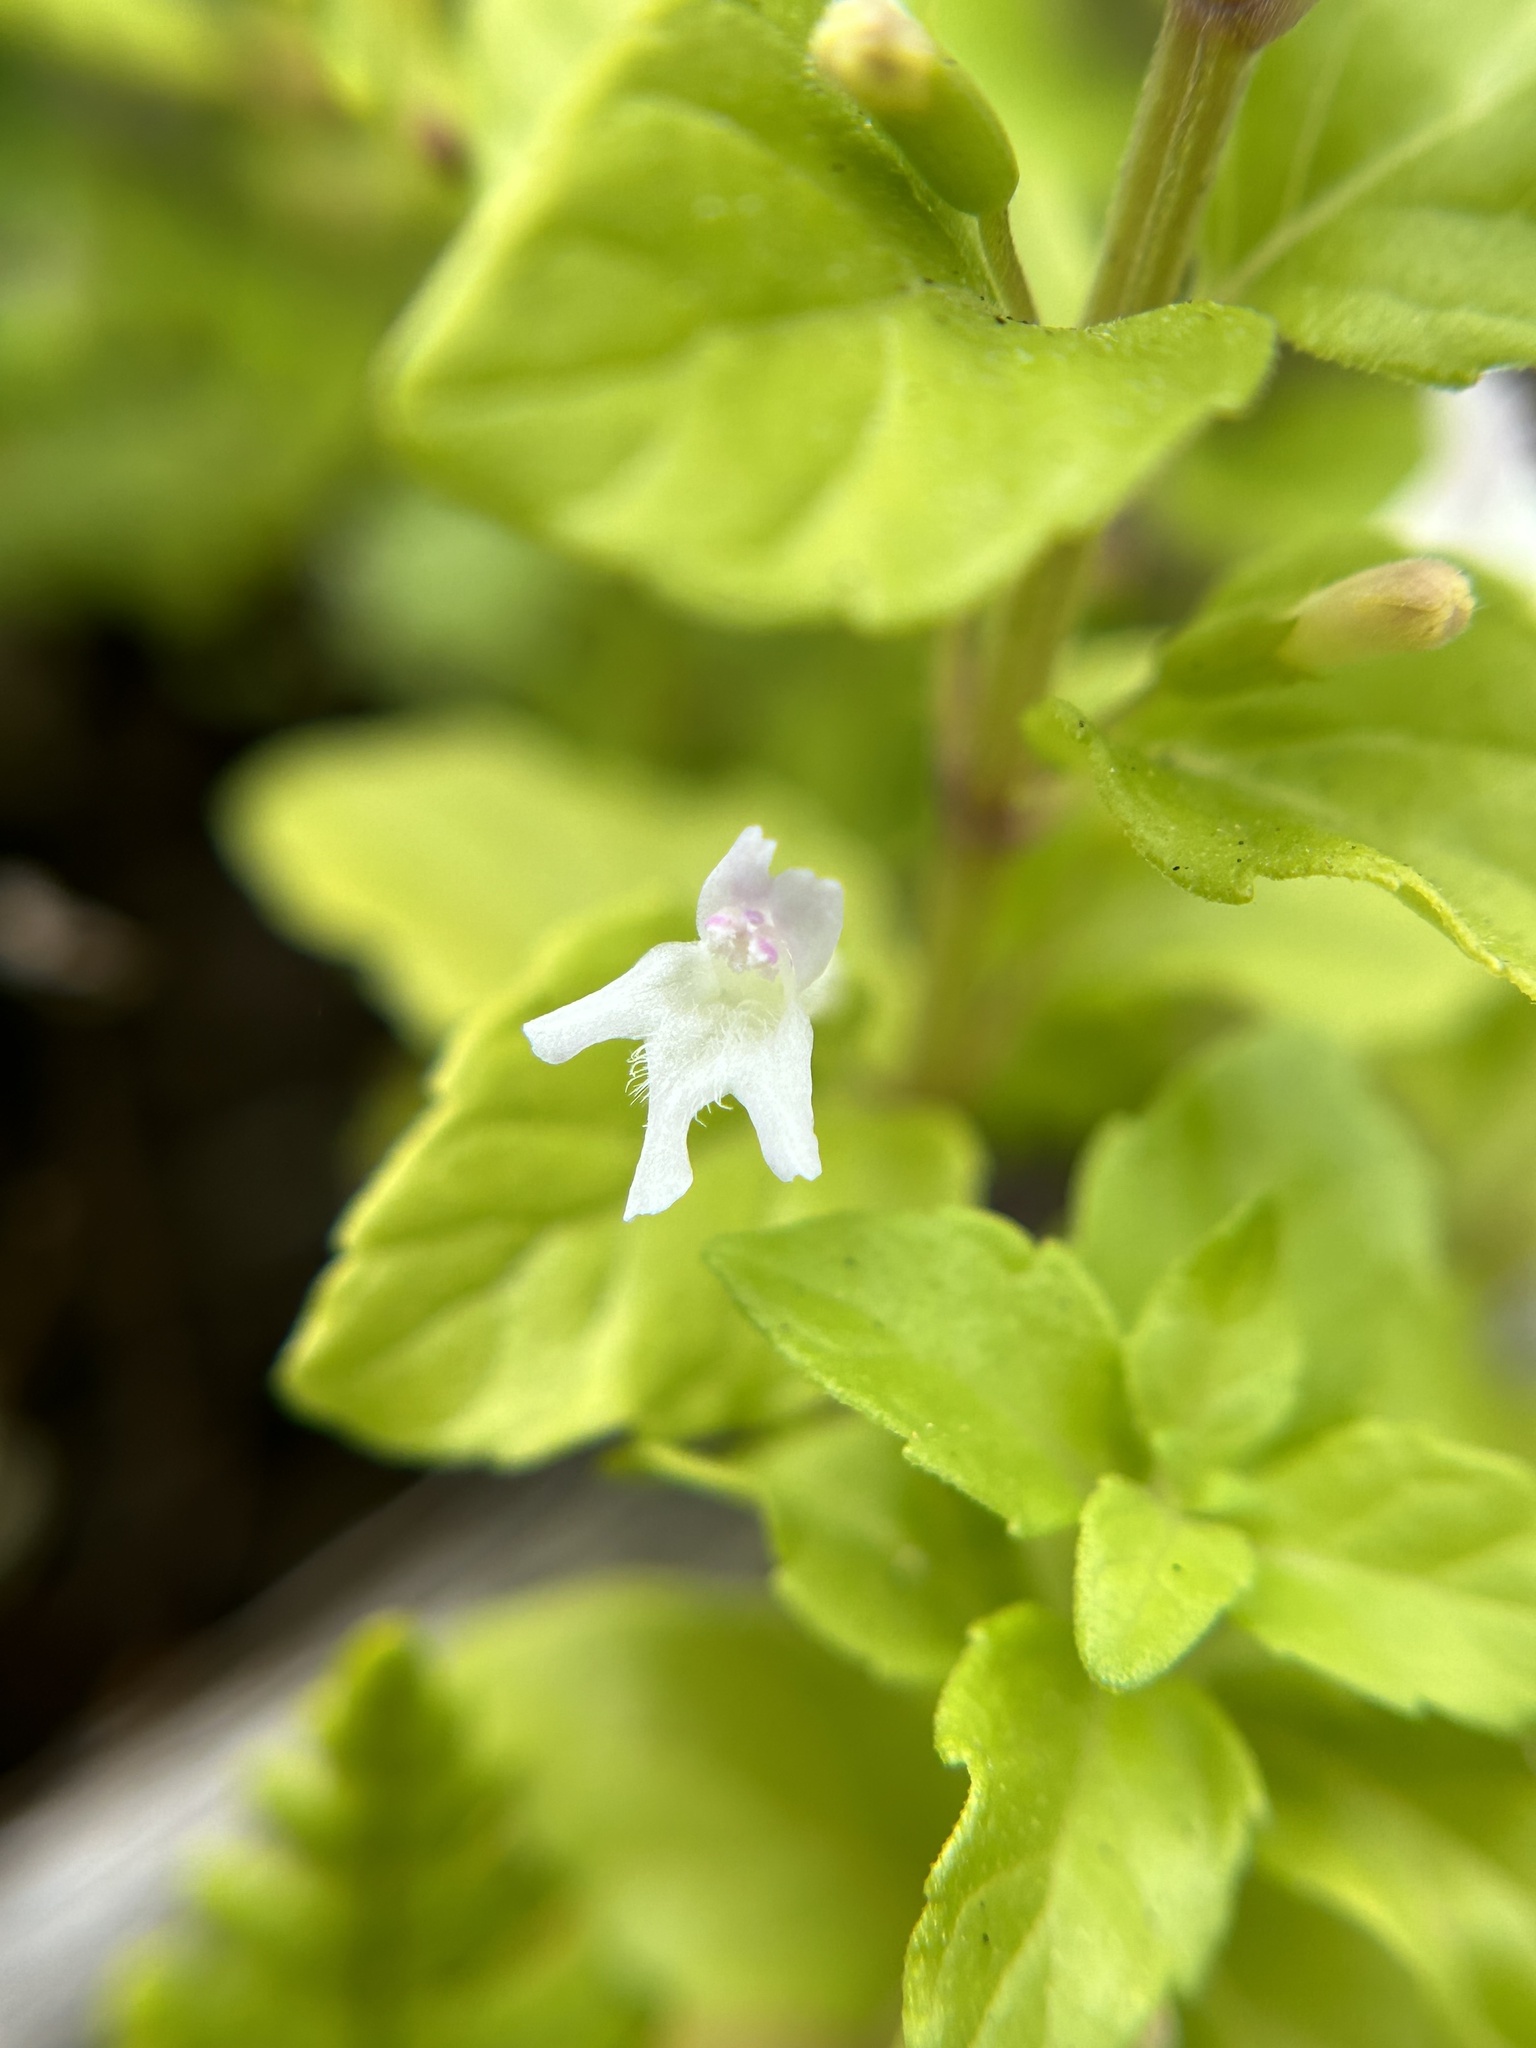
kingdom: Plantae
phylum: Tracheophyta
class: Magnoliopsida
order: Lamiales
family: Lamiaceae
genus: Micromeria
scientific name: Micromeria douglasii
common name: Yerba buena
